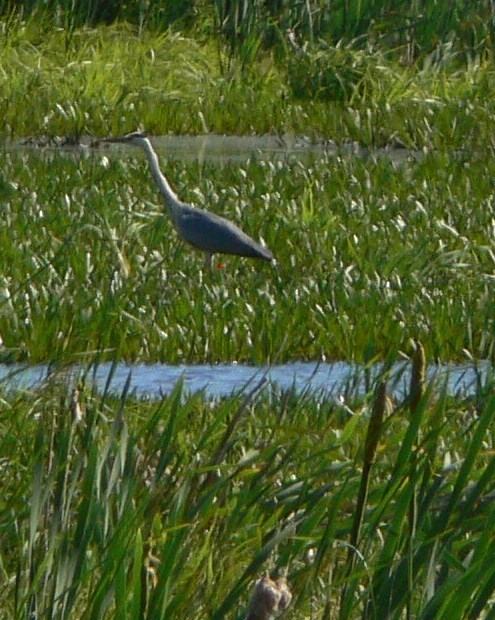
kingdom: Animalia
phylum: Chordata
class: Aves
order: Pelecaniformes
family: Ardeidae
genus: Ardea
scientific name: Ardea cinerea
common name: Grey heron
